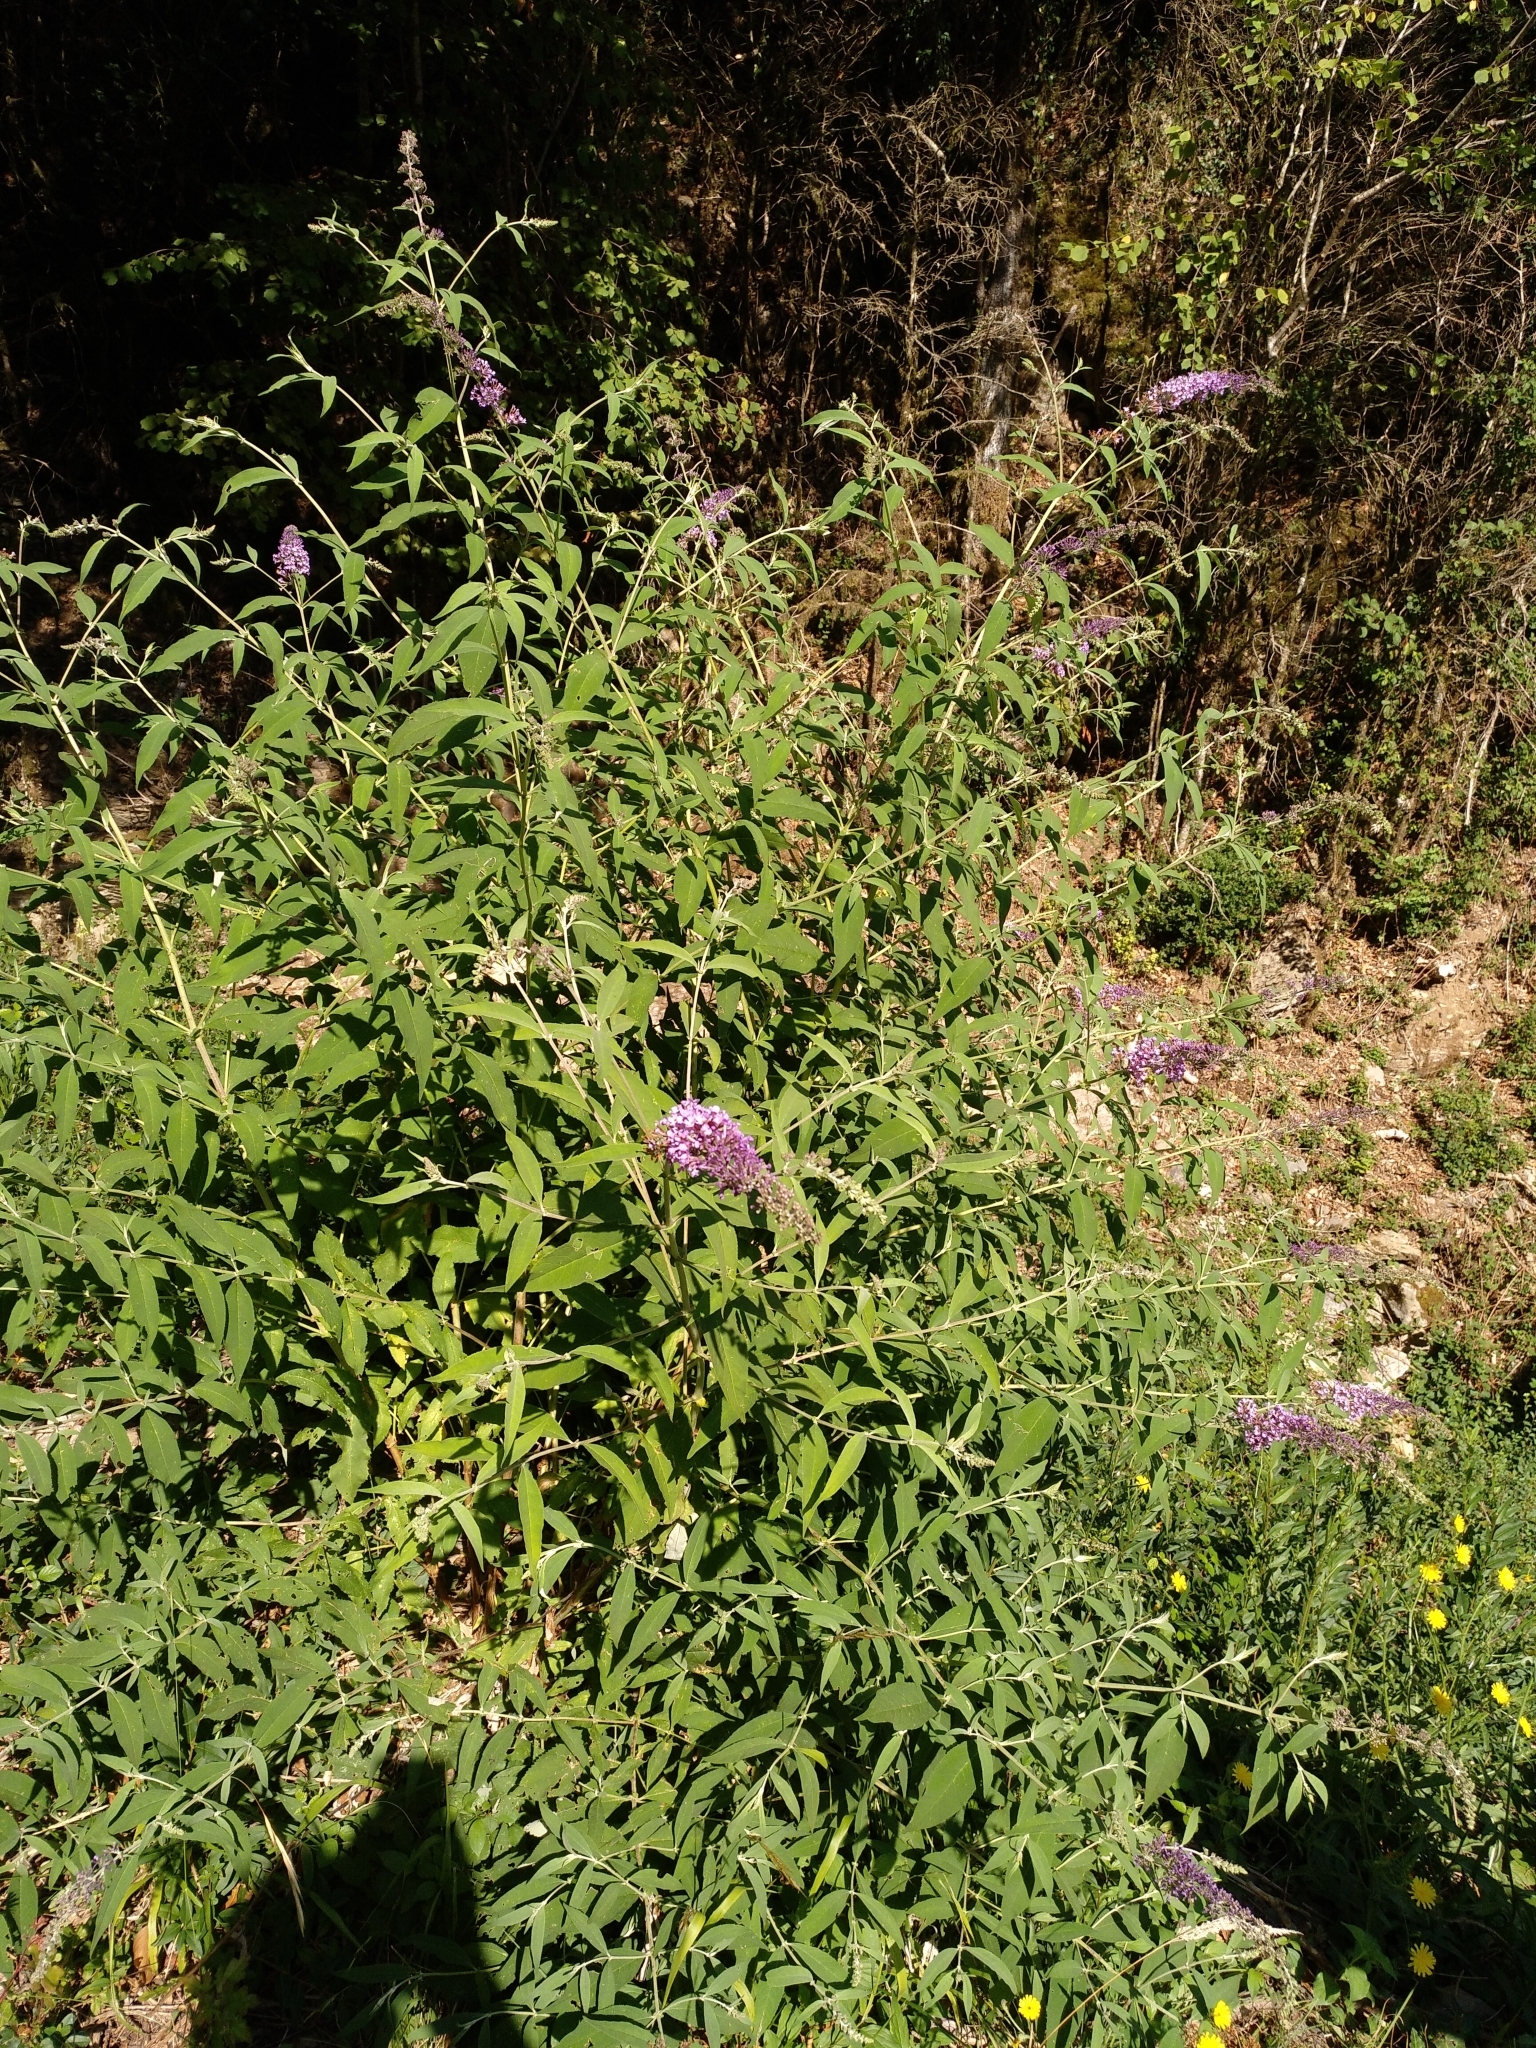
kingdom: Plantae
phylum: Tracheophyta
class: Magnoliopsida
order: Lamiales
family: Scrophulariaceae
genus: Buddleja
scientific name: Buddleja davidii
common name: Butterfly-bush
